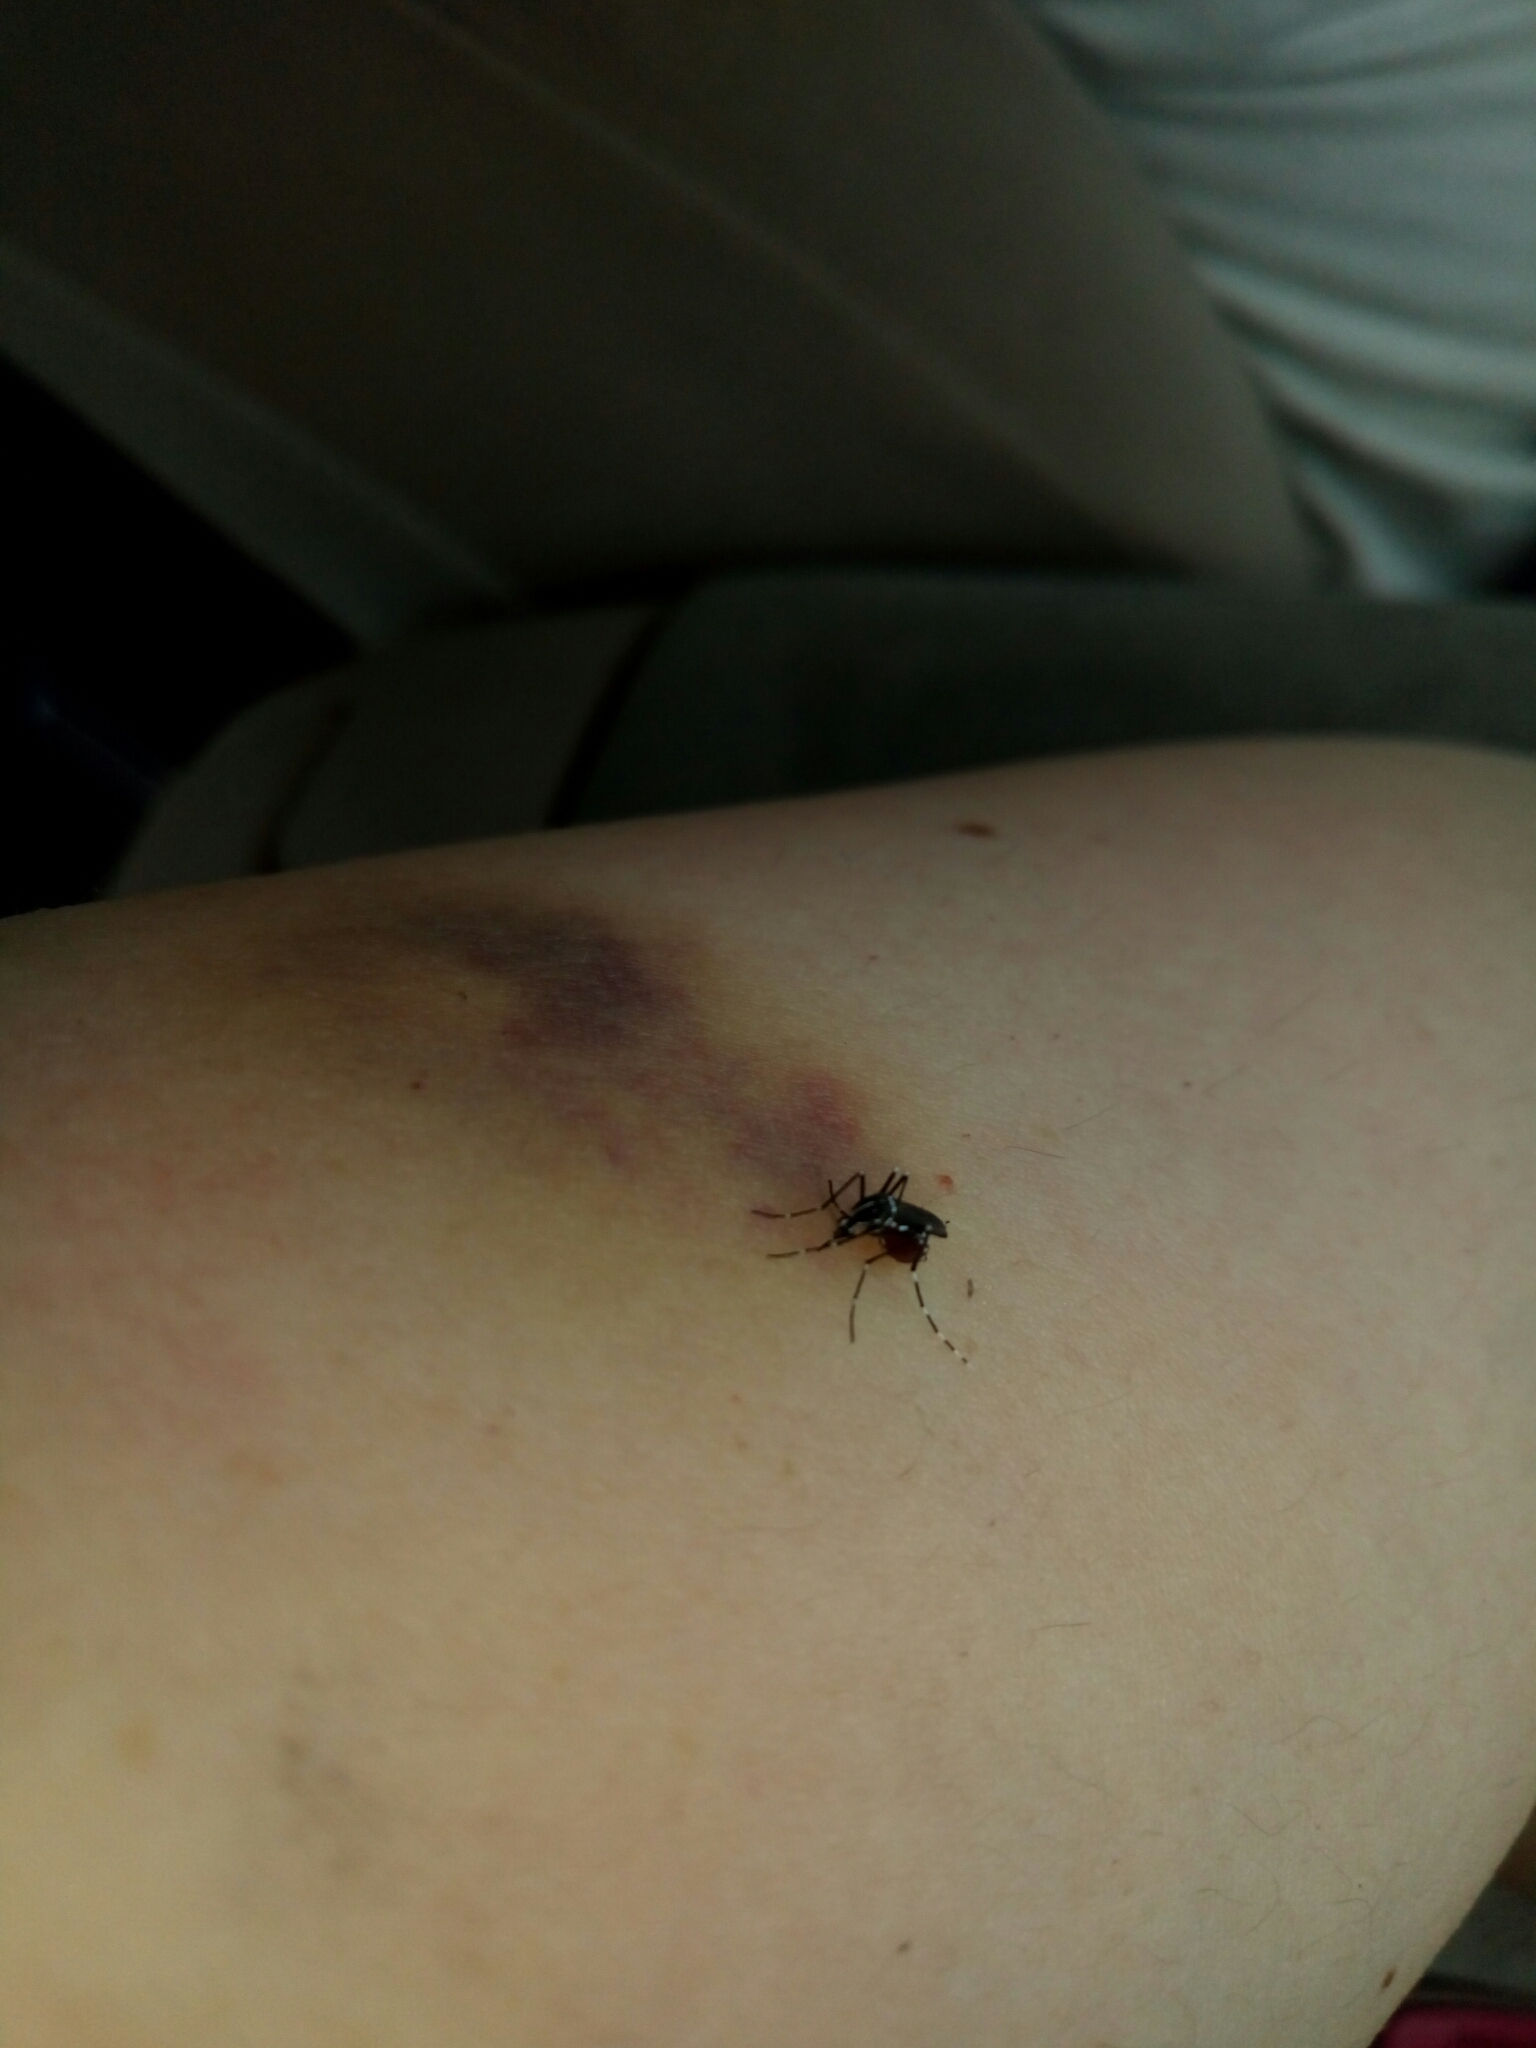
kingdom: Animalia
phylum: Arthropoda
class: Insecta
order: Diptera
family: Culicidae
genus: Aedes
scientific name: Aedes albopictus
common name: Tiger mosquito
